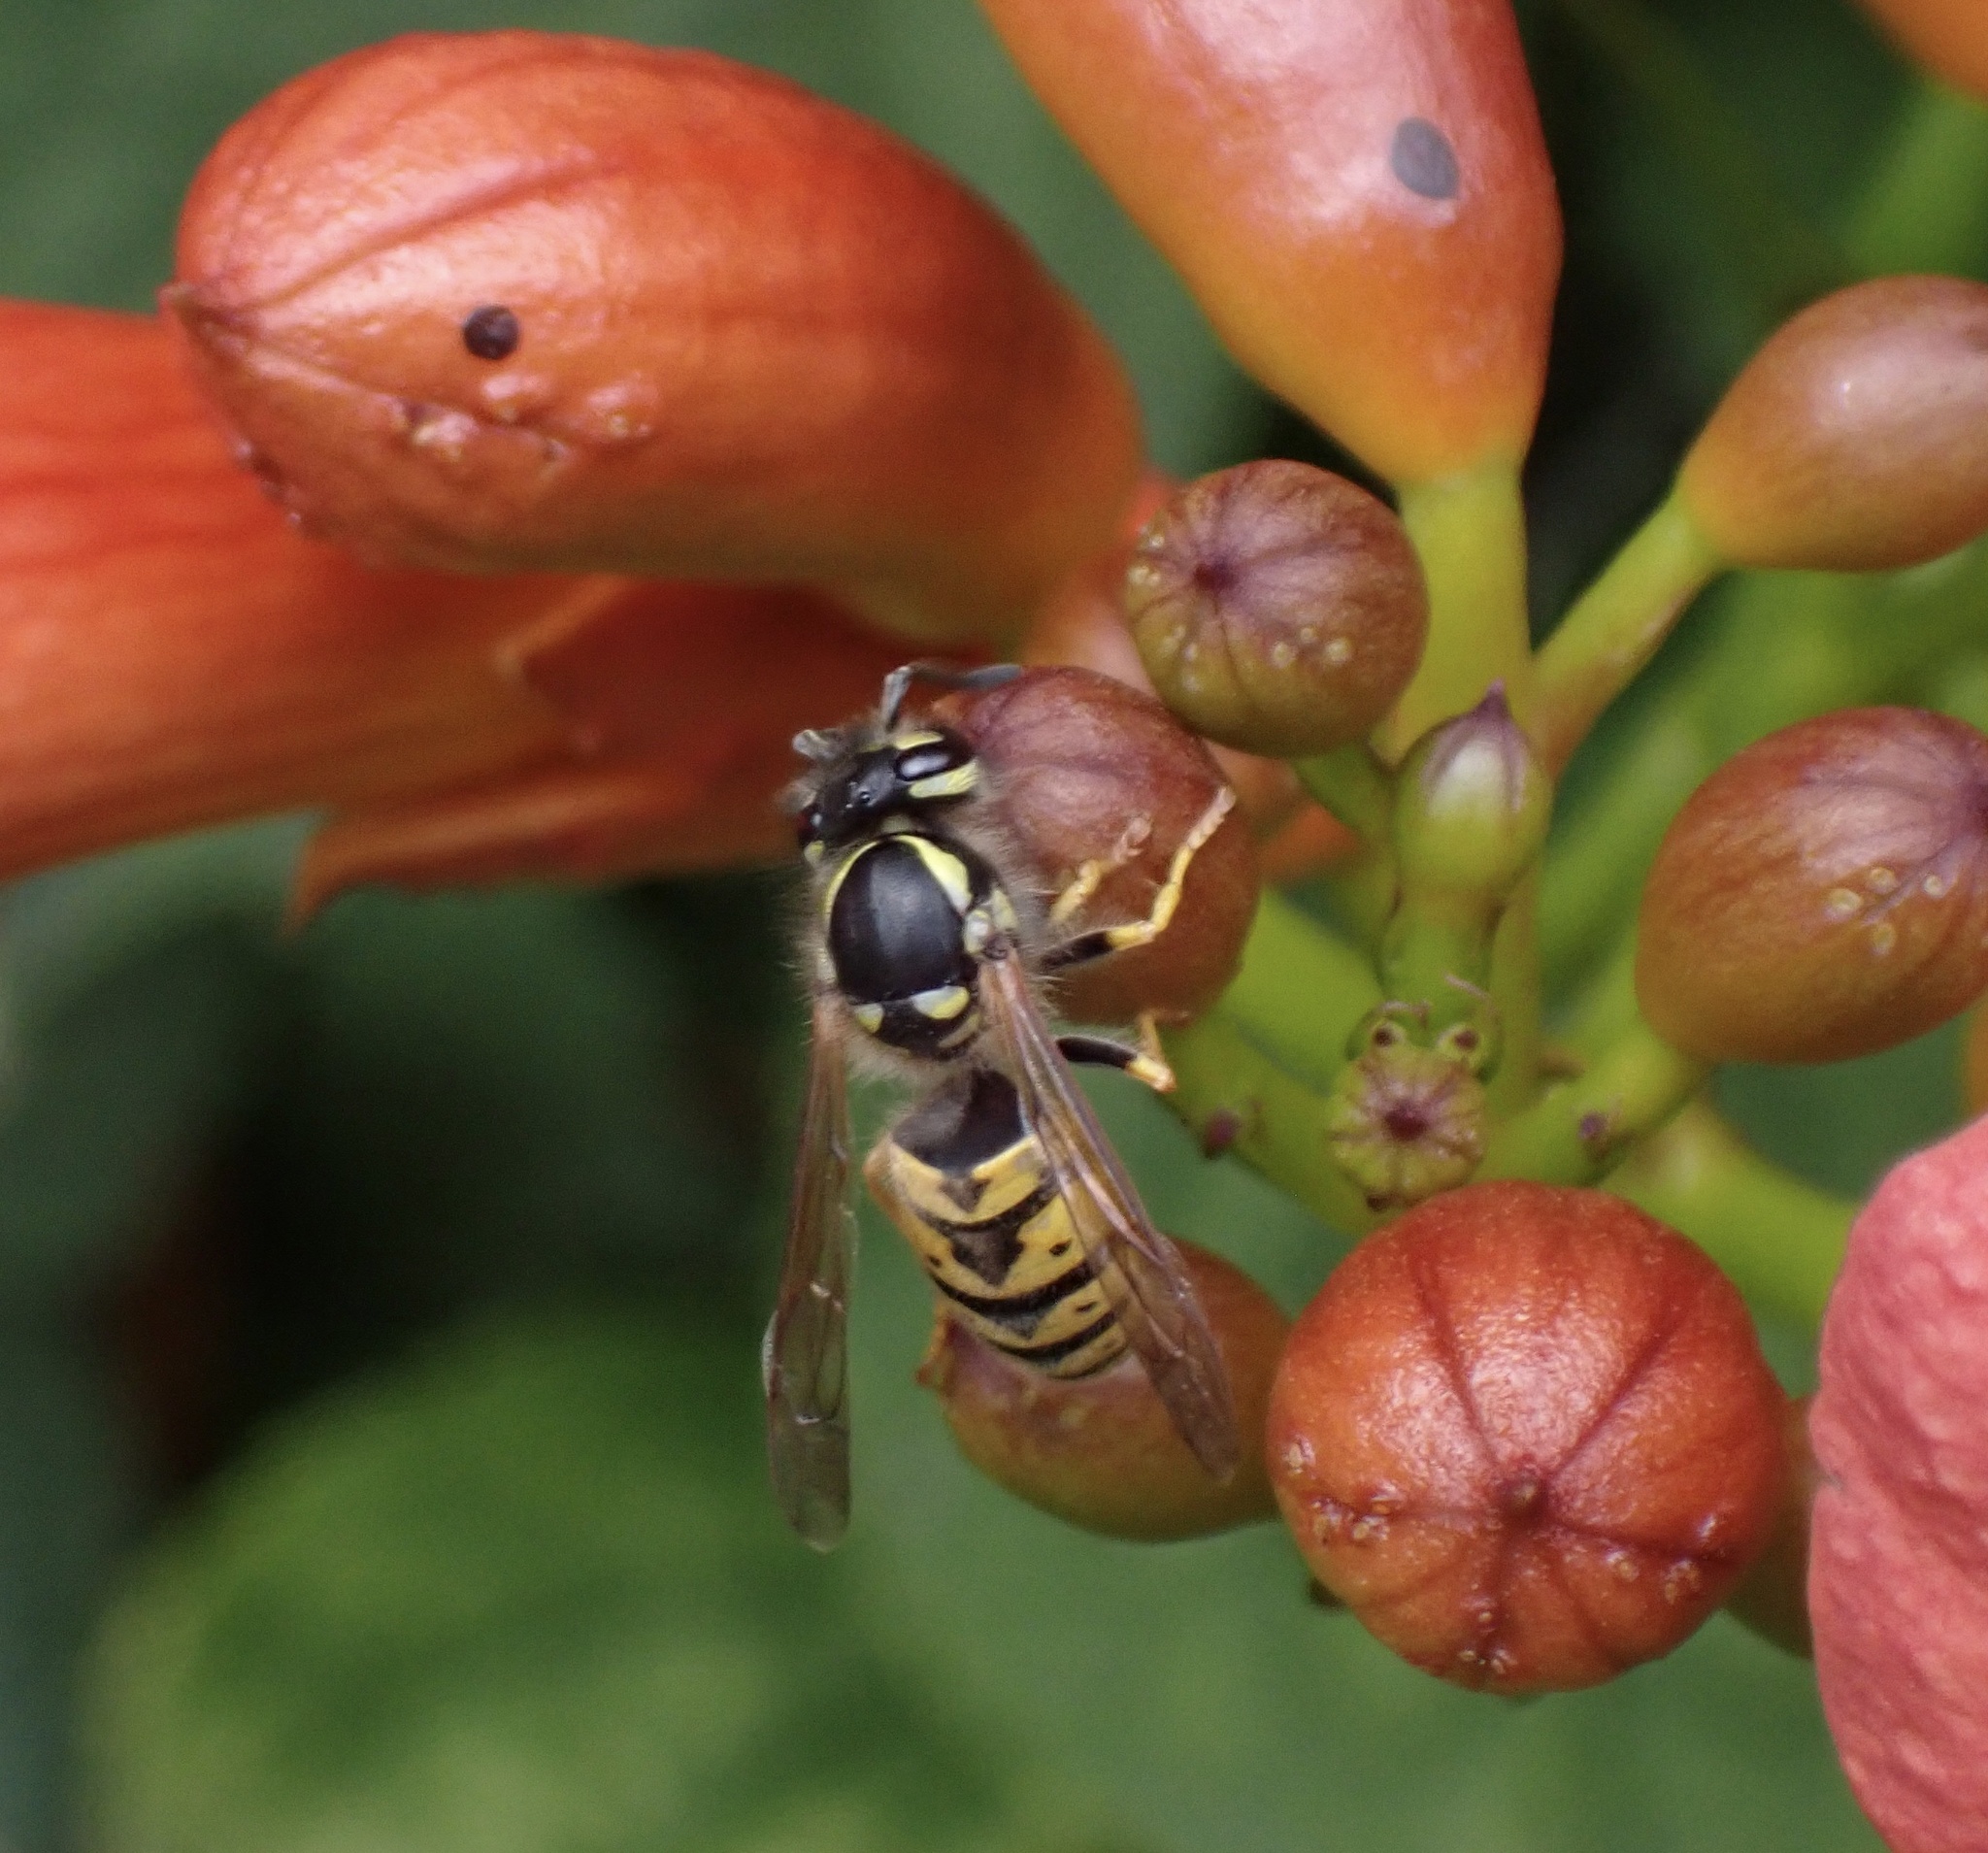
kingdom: Animalia
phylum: Arthropoda
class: Insecta
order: Hymenoptera
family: Vespidae
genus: Vespula
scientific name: Vespula germanica
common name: German wasp
